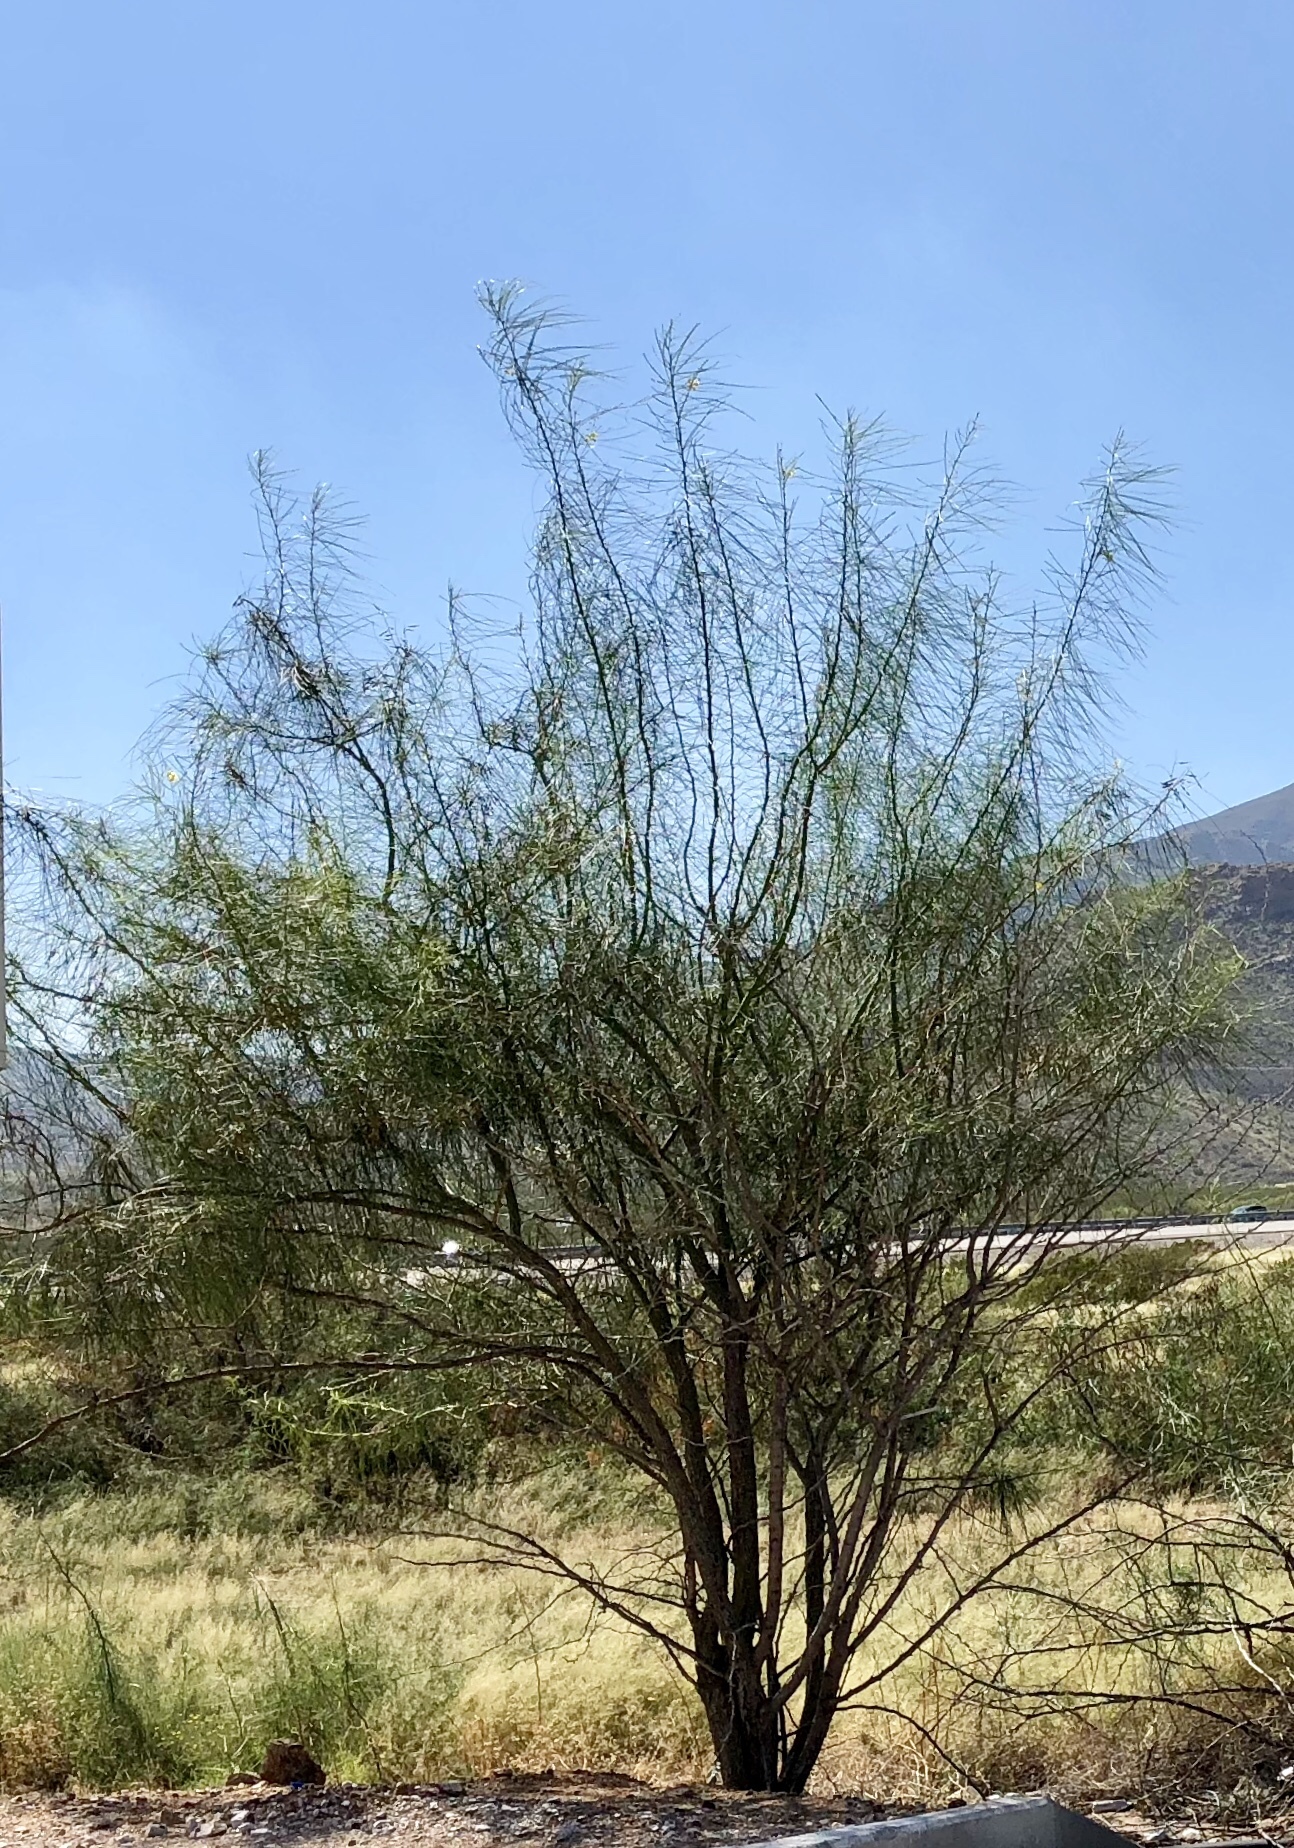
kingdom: Plantae
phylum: Tracheophyta
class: Magnoliopsida
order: Fabales
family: Fabaceae
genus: Parkinsonia
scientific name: Parkinsonia aculeata
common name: Jerusalem thorn
